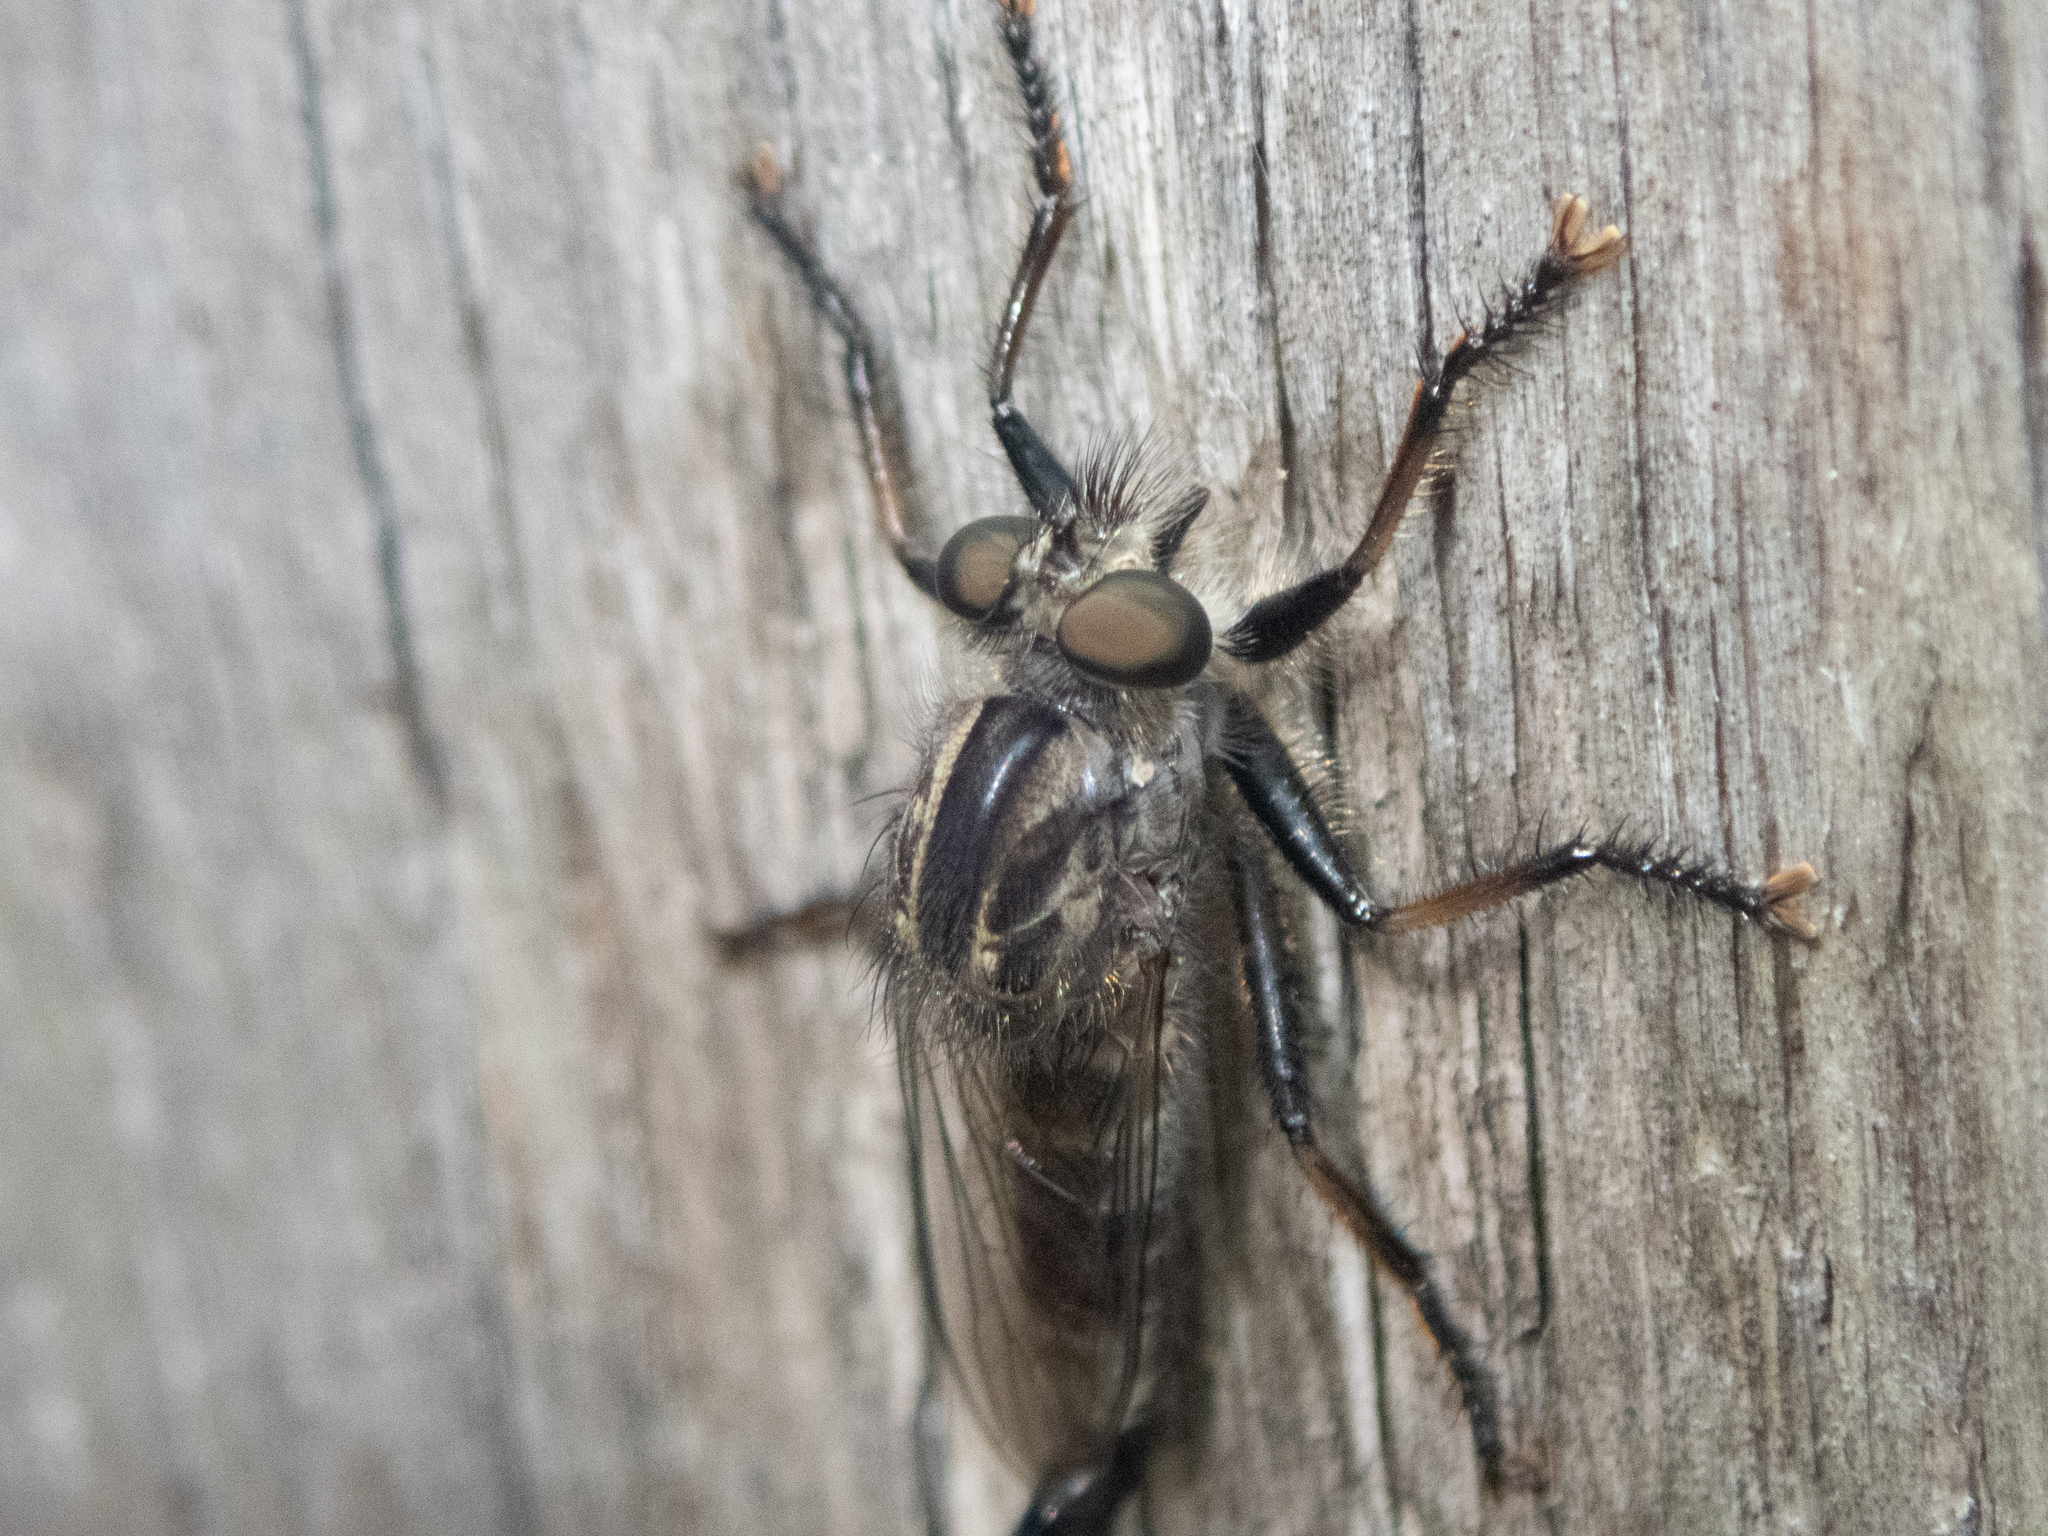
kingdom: Animalia
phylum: Arthropoda
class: Insecta
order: Diptera
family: Asilidae
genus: Efferia
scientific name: Efferia aestuans
